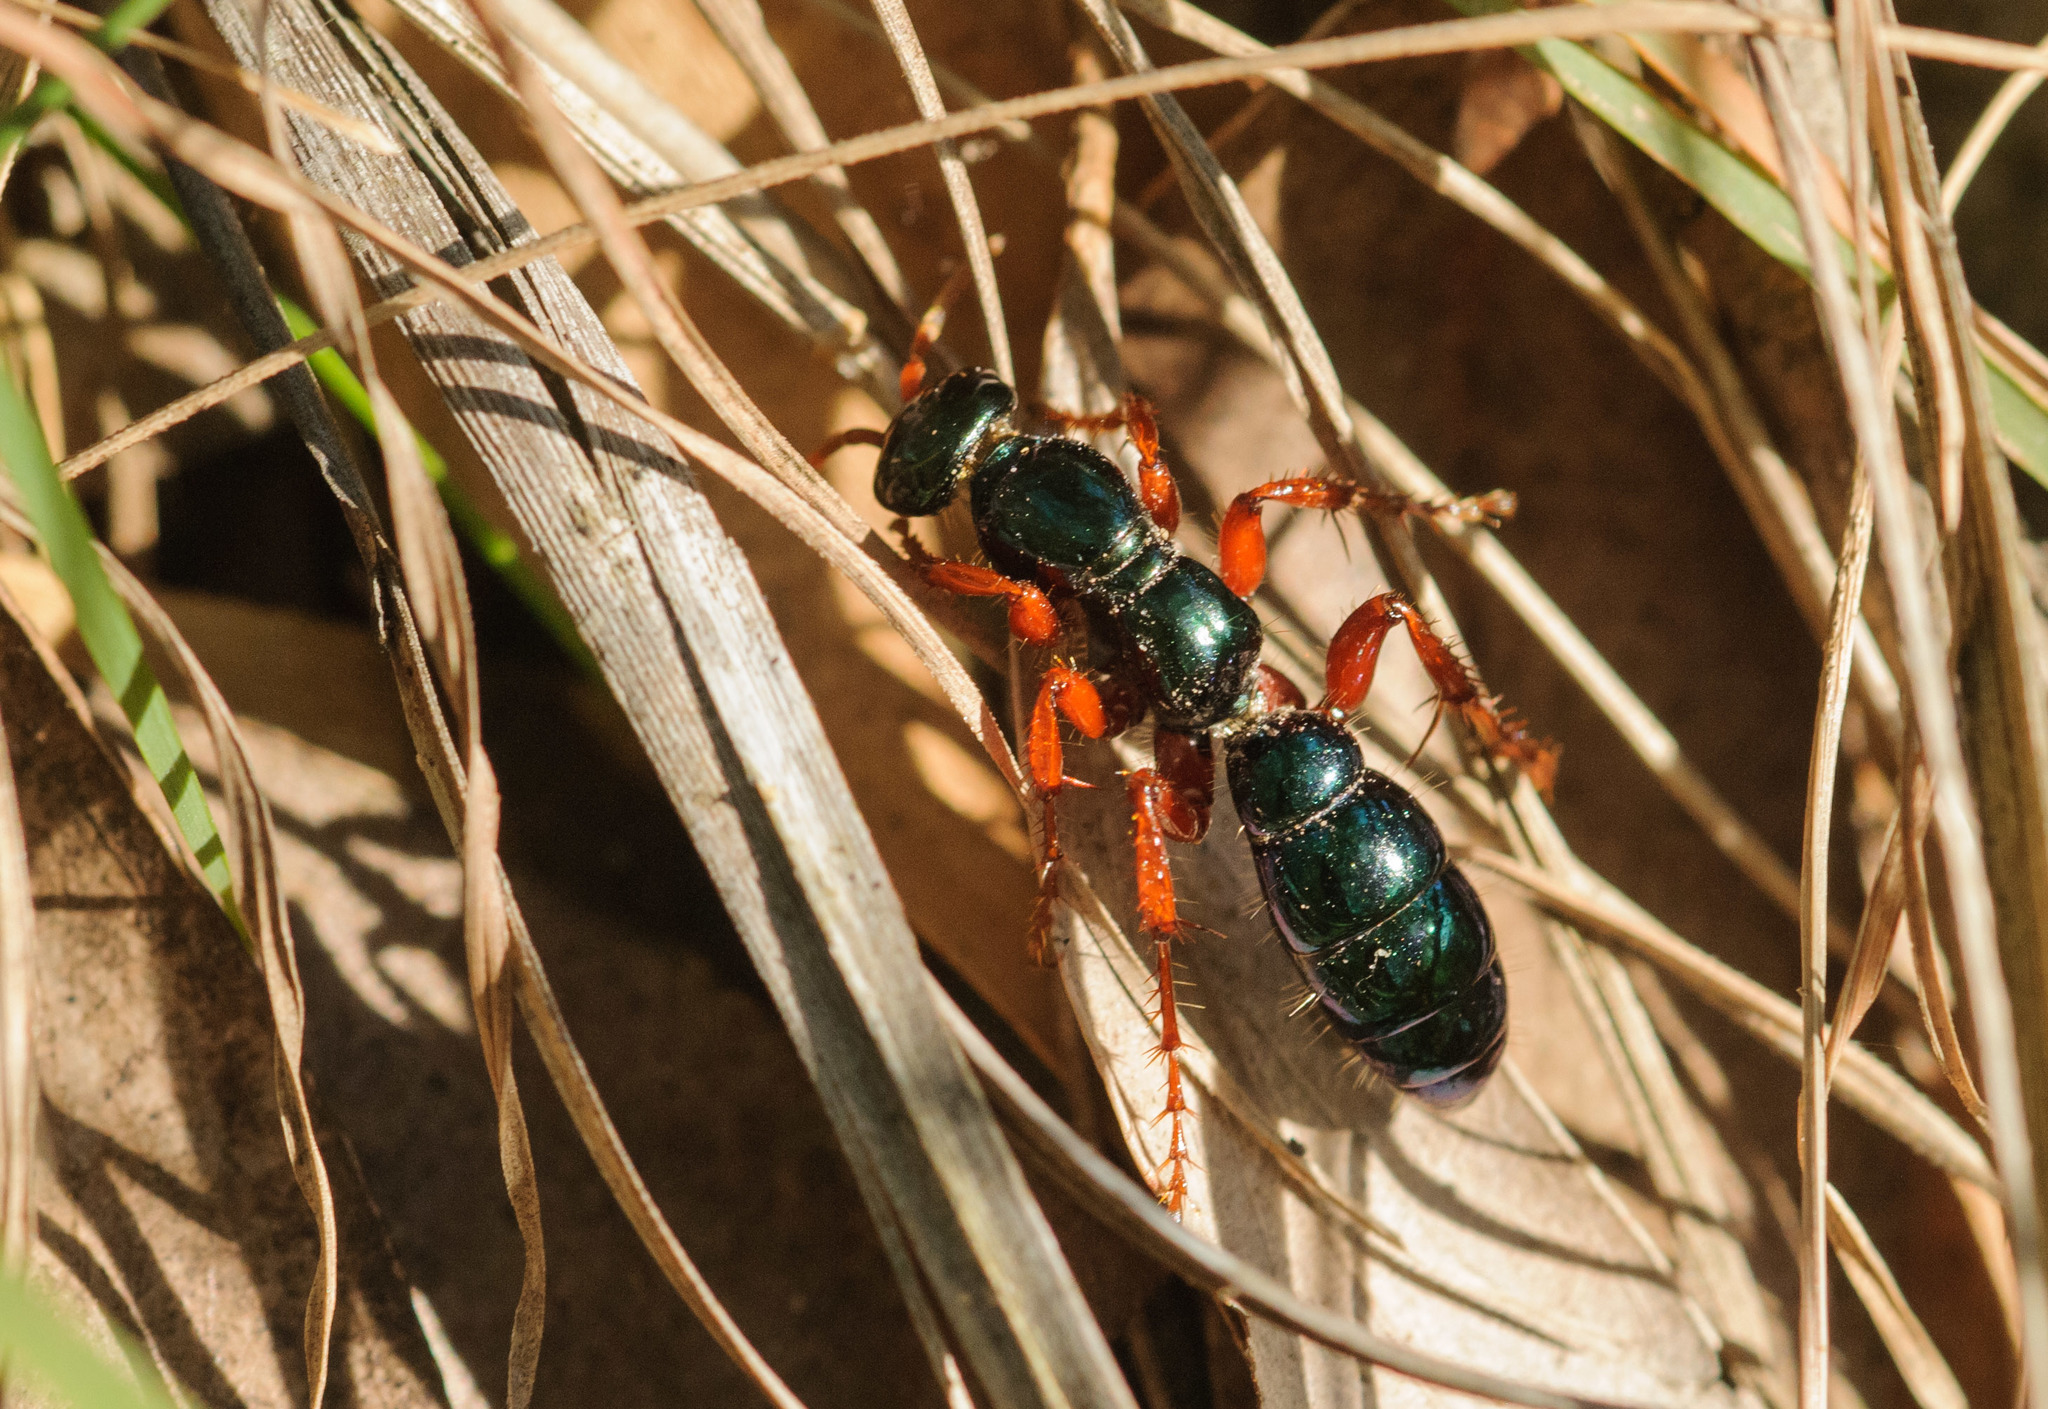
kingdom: Animalia
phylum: Arthropoda
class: Insecta
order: Hymenoptera
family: Tiphiidae
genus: Diamma
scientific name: Diamma
